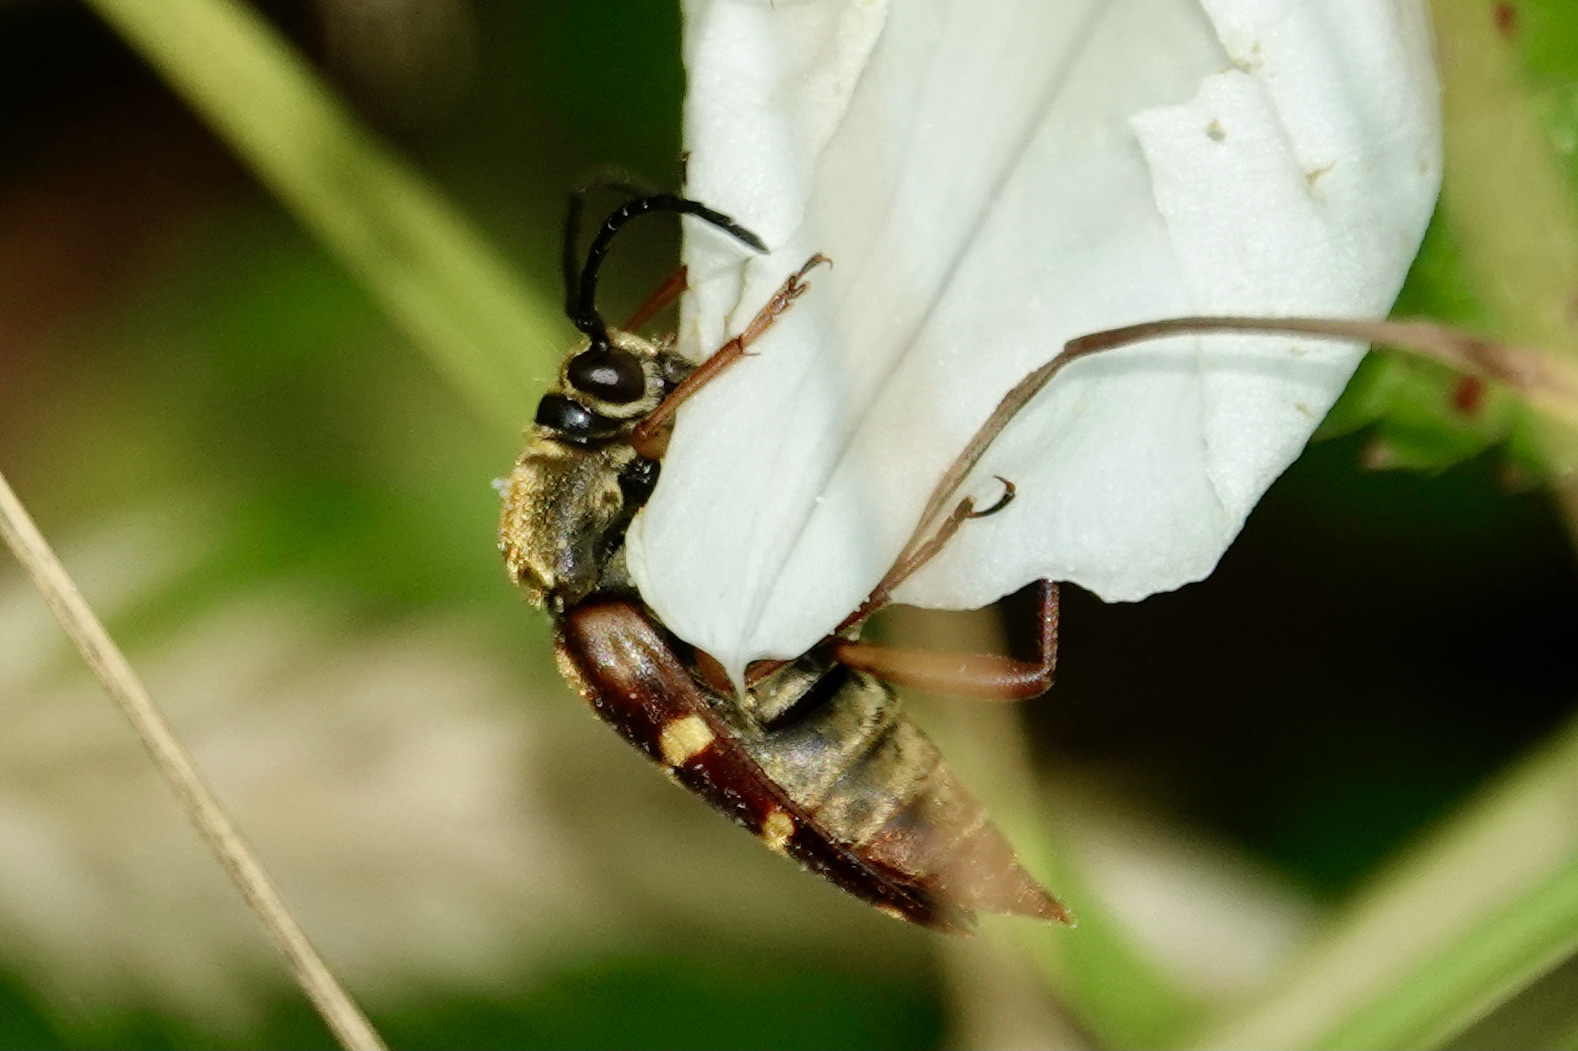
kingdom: Animalia
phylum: Arthropoda
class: Insecta
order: Coleoptera
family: Cerambycidae
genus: Typocerus
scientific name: Typocerus velutinus
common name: Banded longhorn beetle
